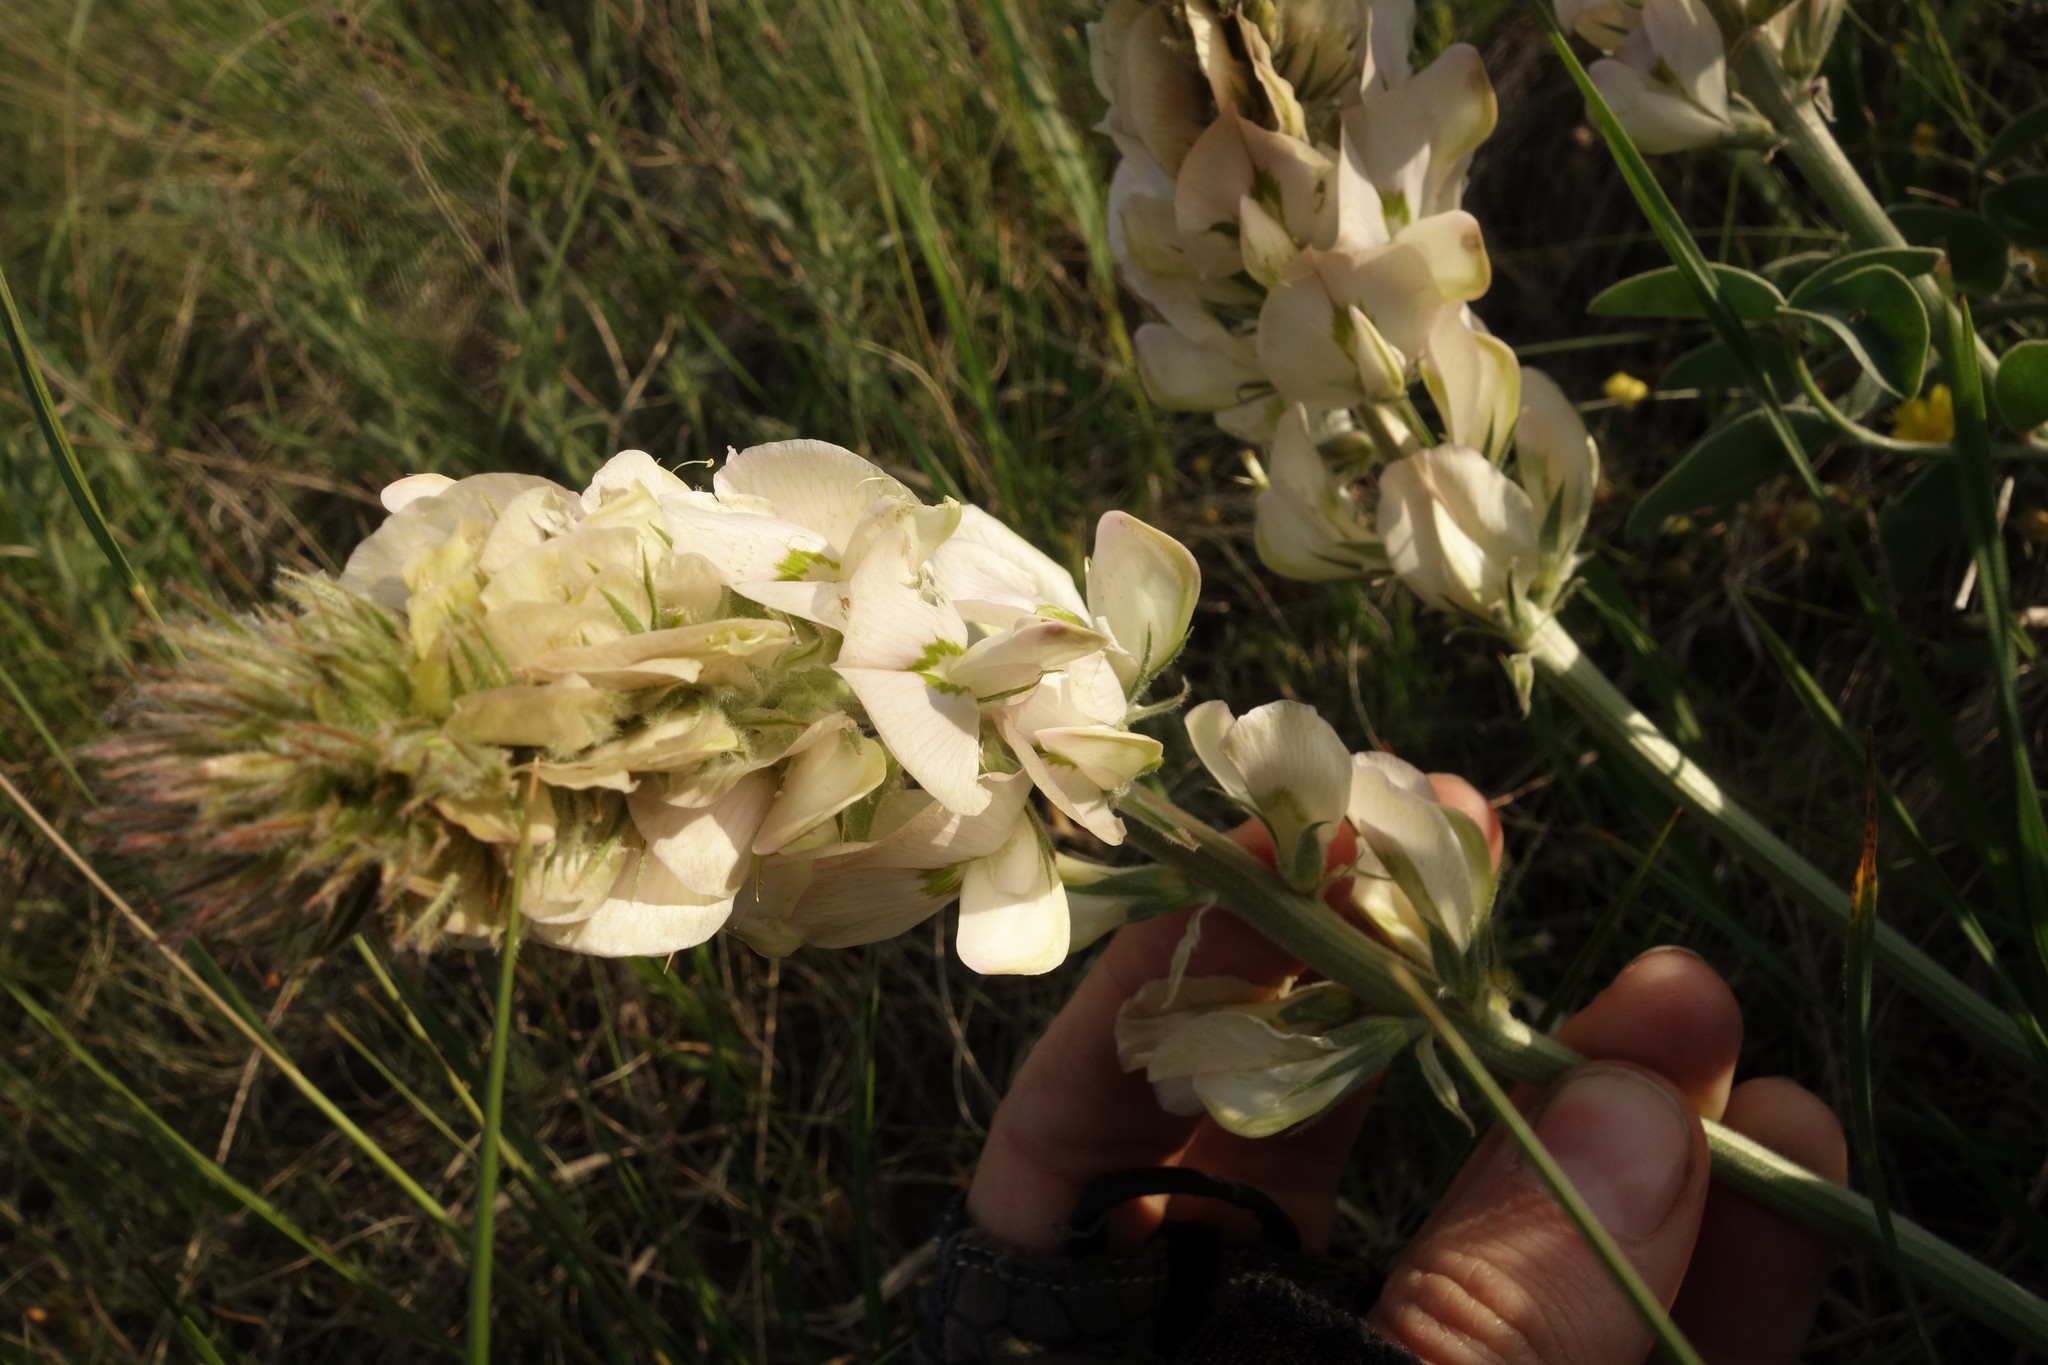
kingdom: Plantae
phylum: Tracheophyta
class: Magnoliopsida
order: Fabales
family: Fabaceae
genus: Hedysarum
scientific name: Hedysarum grandiflorum
